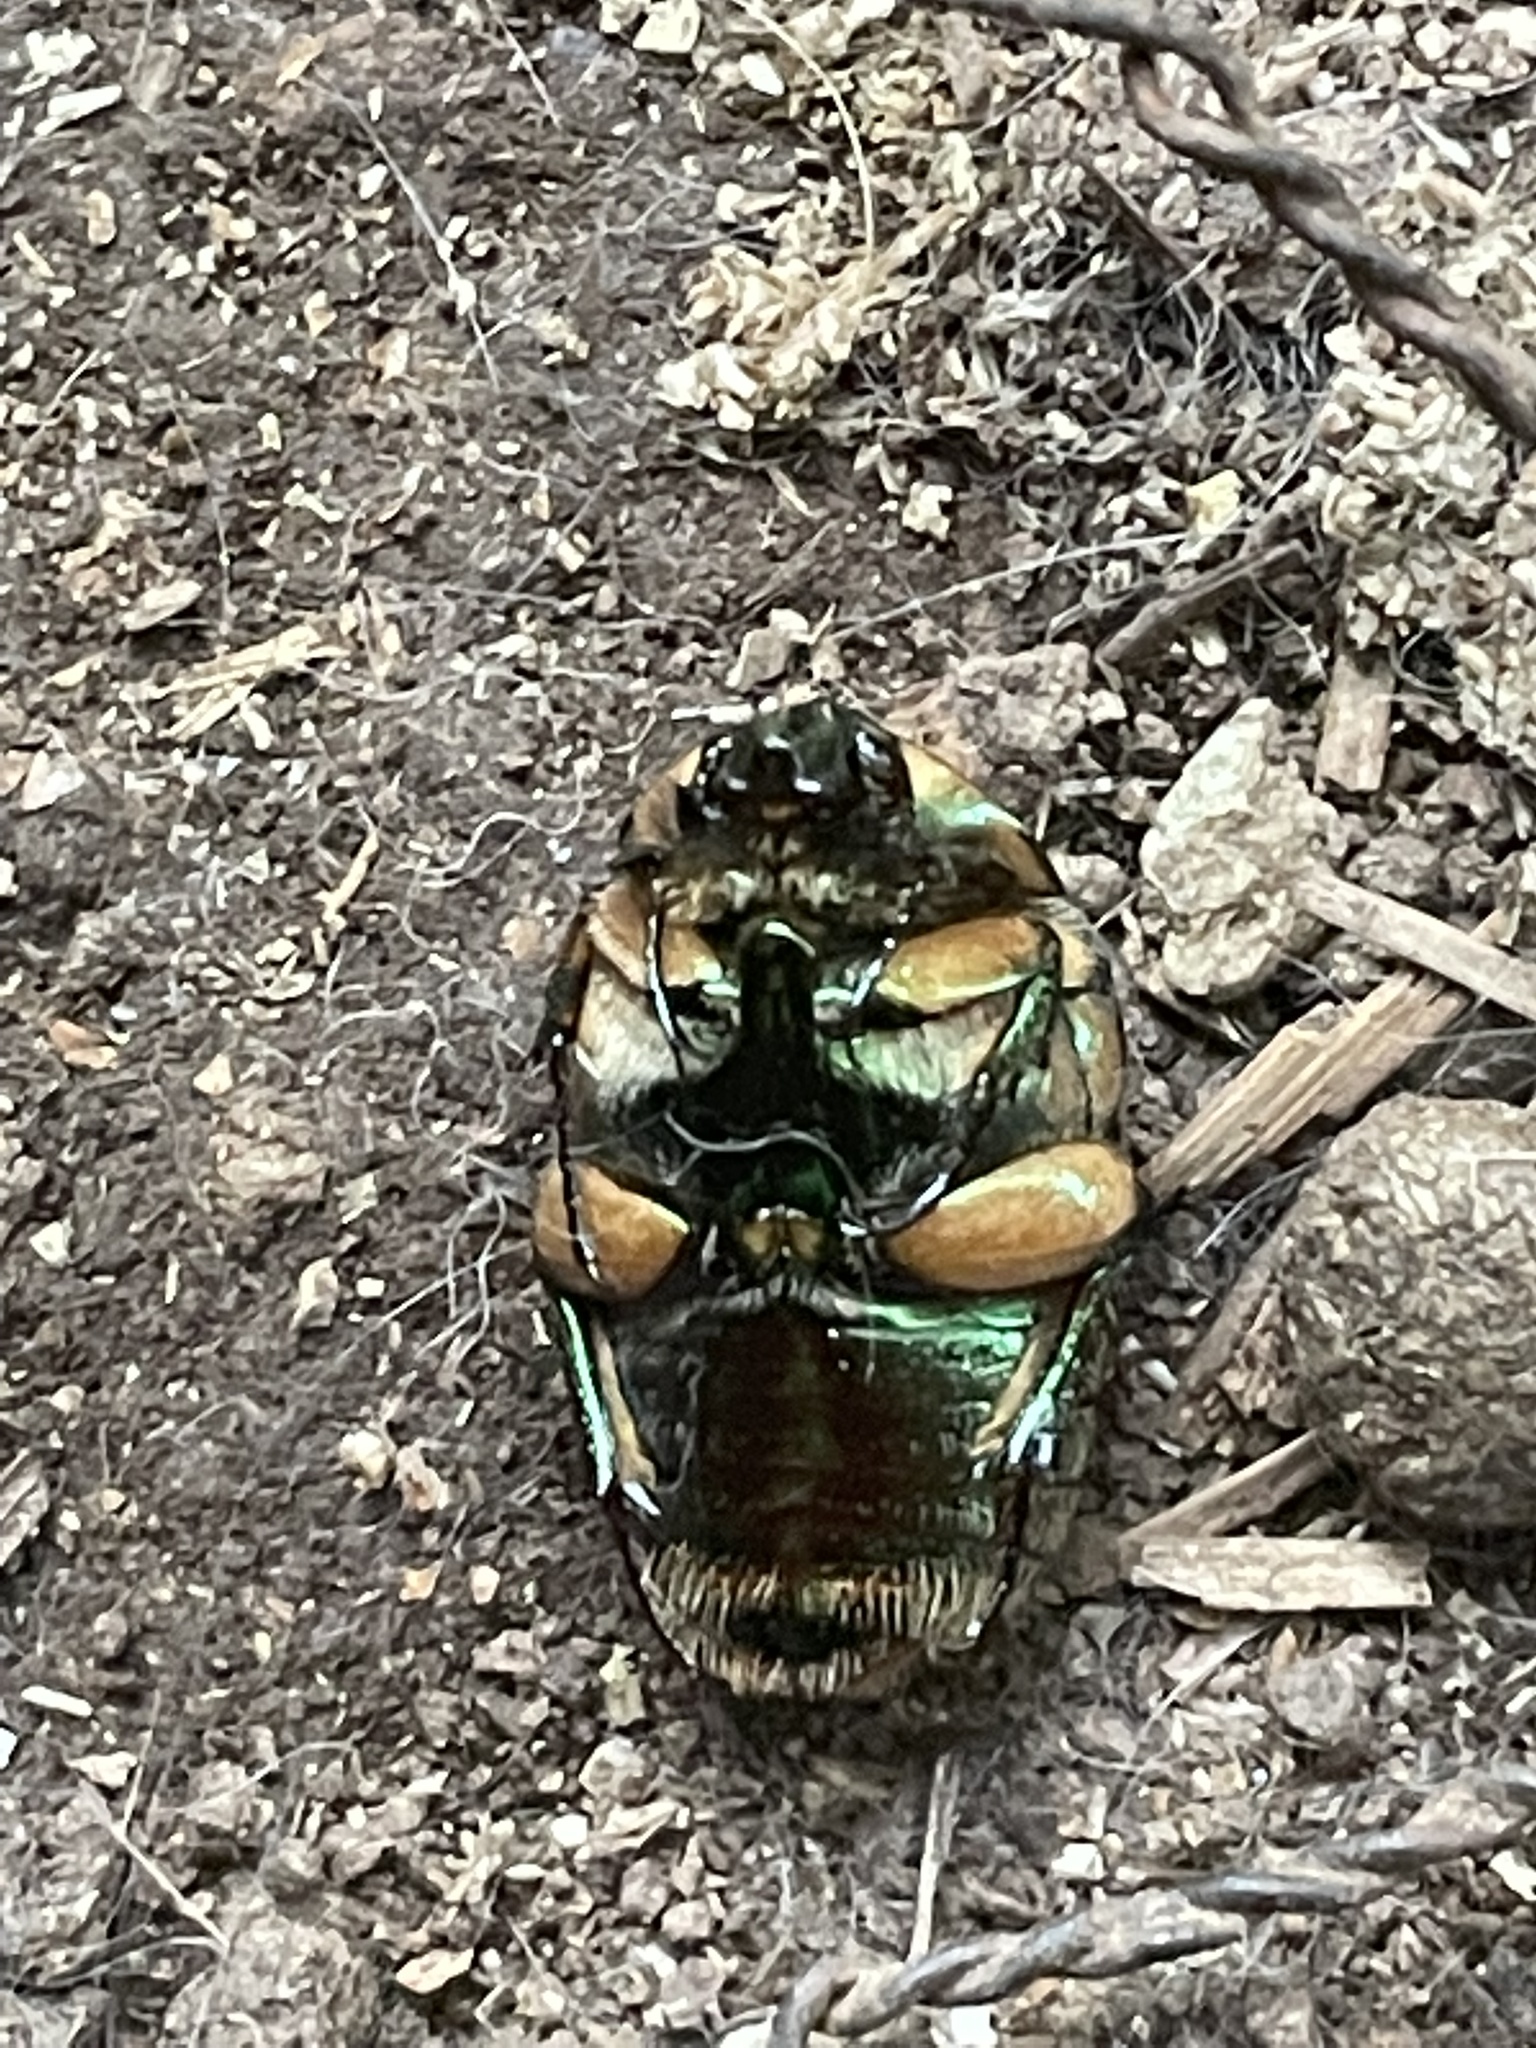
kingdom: Animalia
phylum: Arthropoda
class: Insecta
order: Coleoptera
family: Scarabaeidae
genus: Cotinis
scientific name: Cotinis nitida
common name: Common green june beetle
